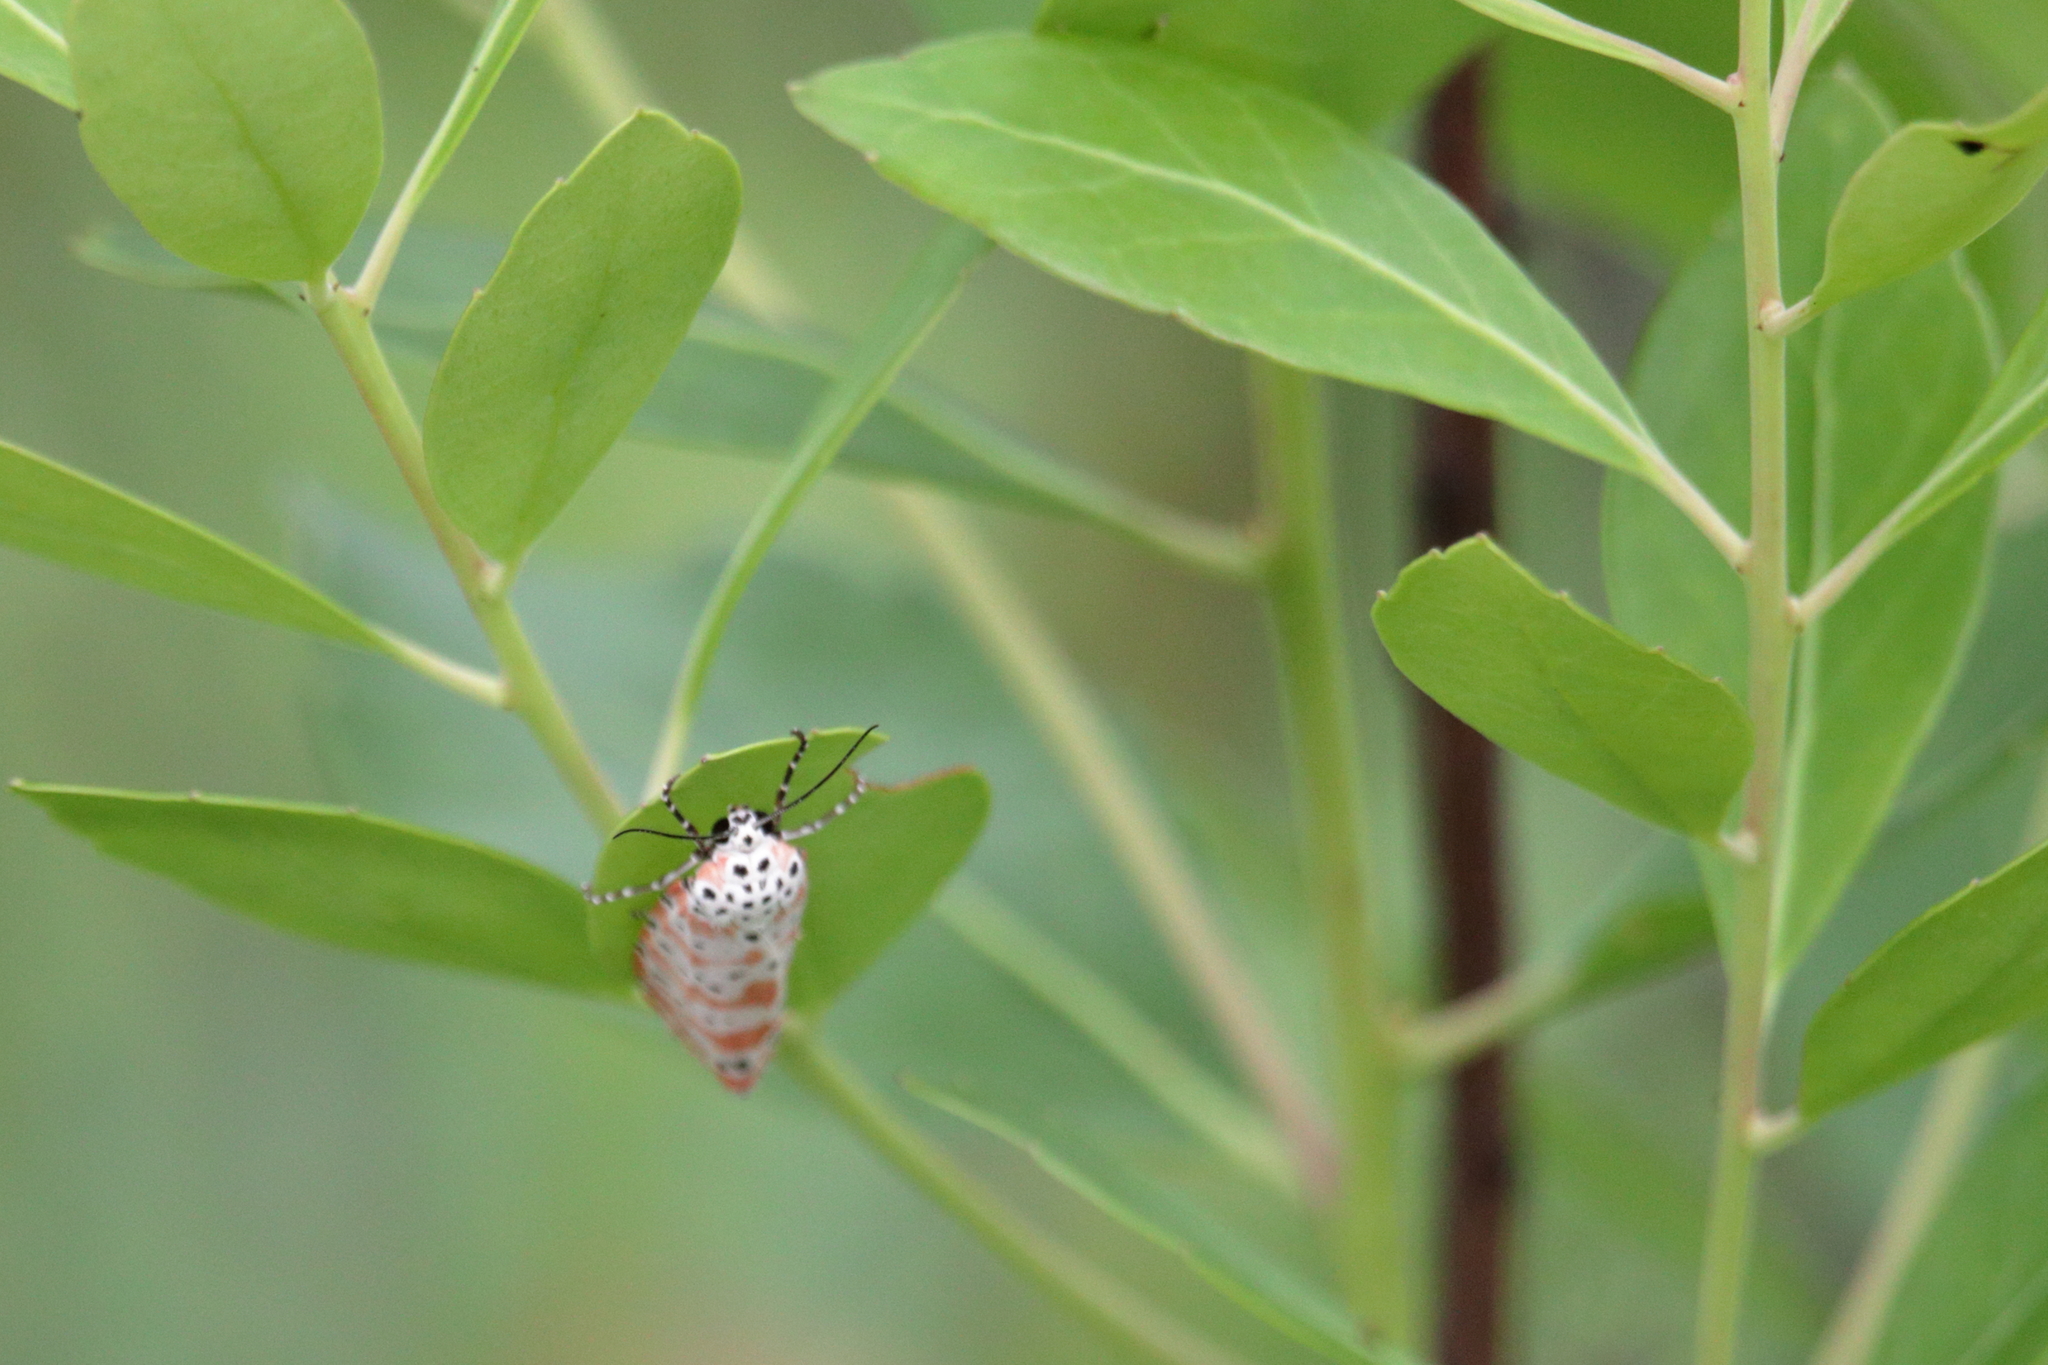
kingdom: Animalia
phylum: Arthropoda
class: Insecta
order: Lepidoptera
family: Erebidae
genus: Utetheisa
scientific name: Utetheisa ornatrix
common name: Beautiful utetheisa
